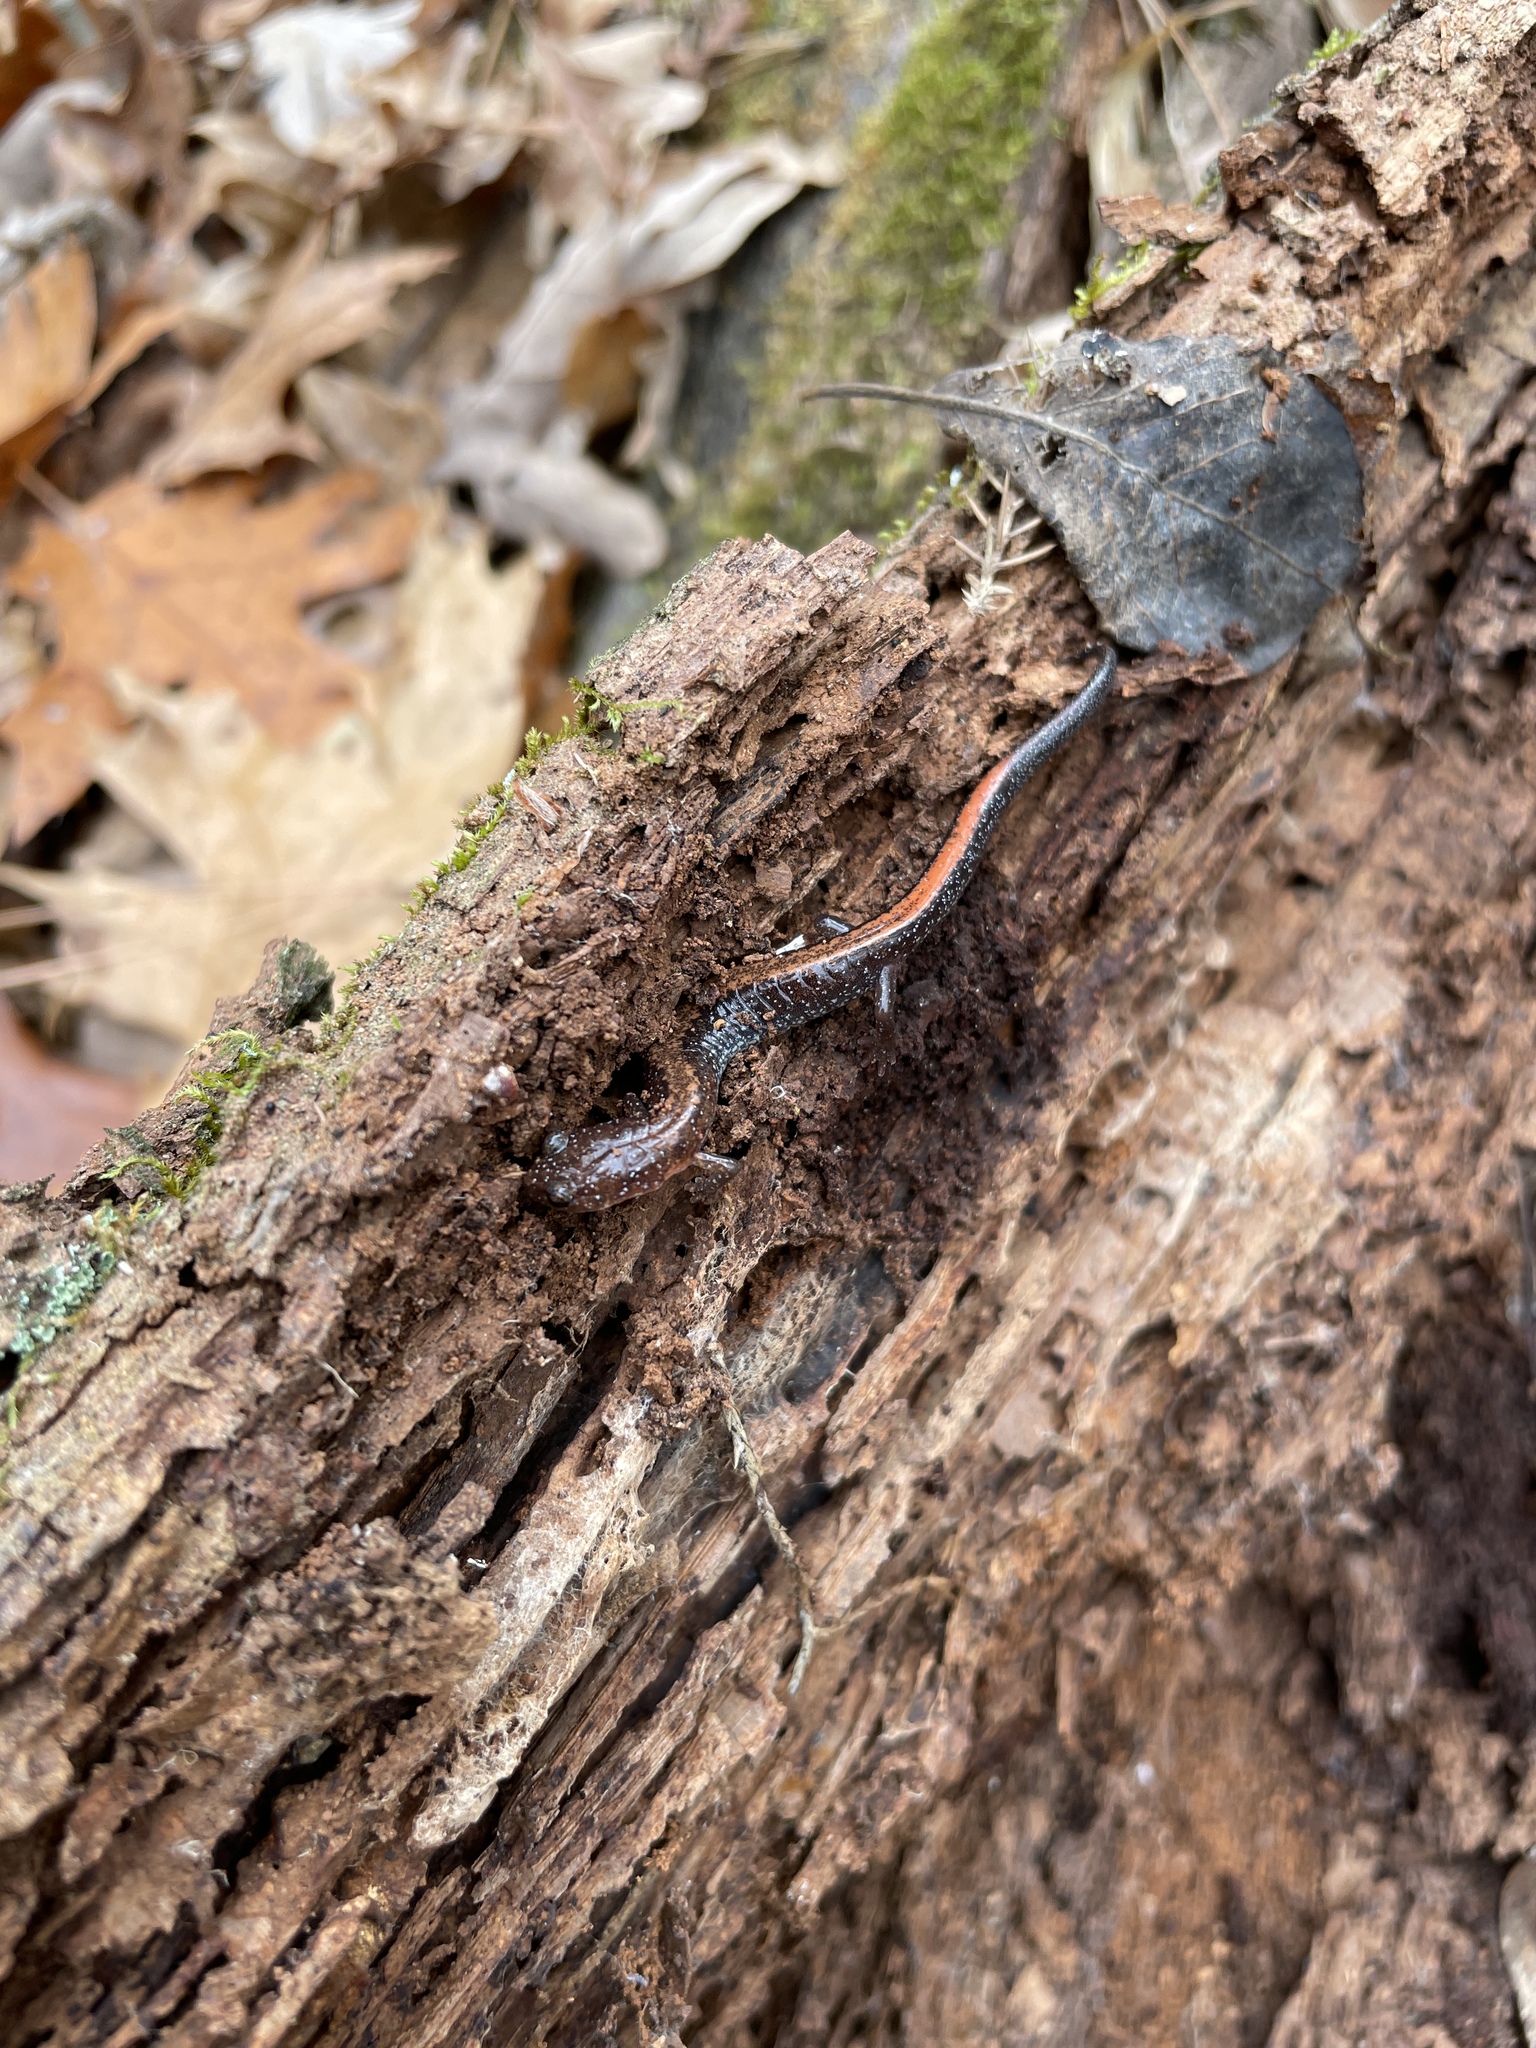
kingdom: Animalia
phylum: Chordata
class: Amphibia
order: Caudata
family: Plethodontidae
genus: Plethodon
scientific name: Plethodon serratus
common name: Southern red-backed salamander
